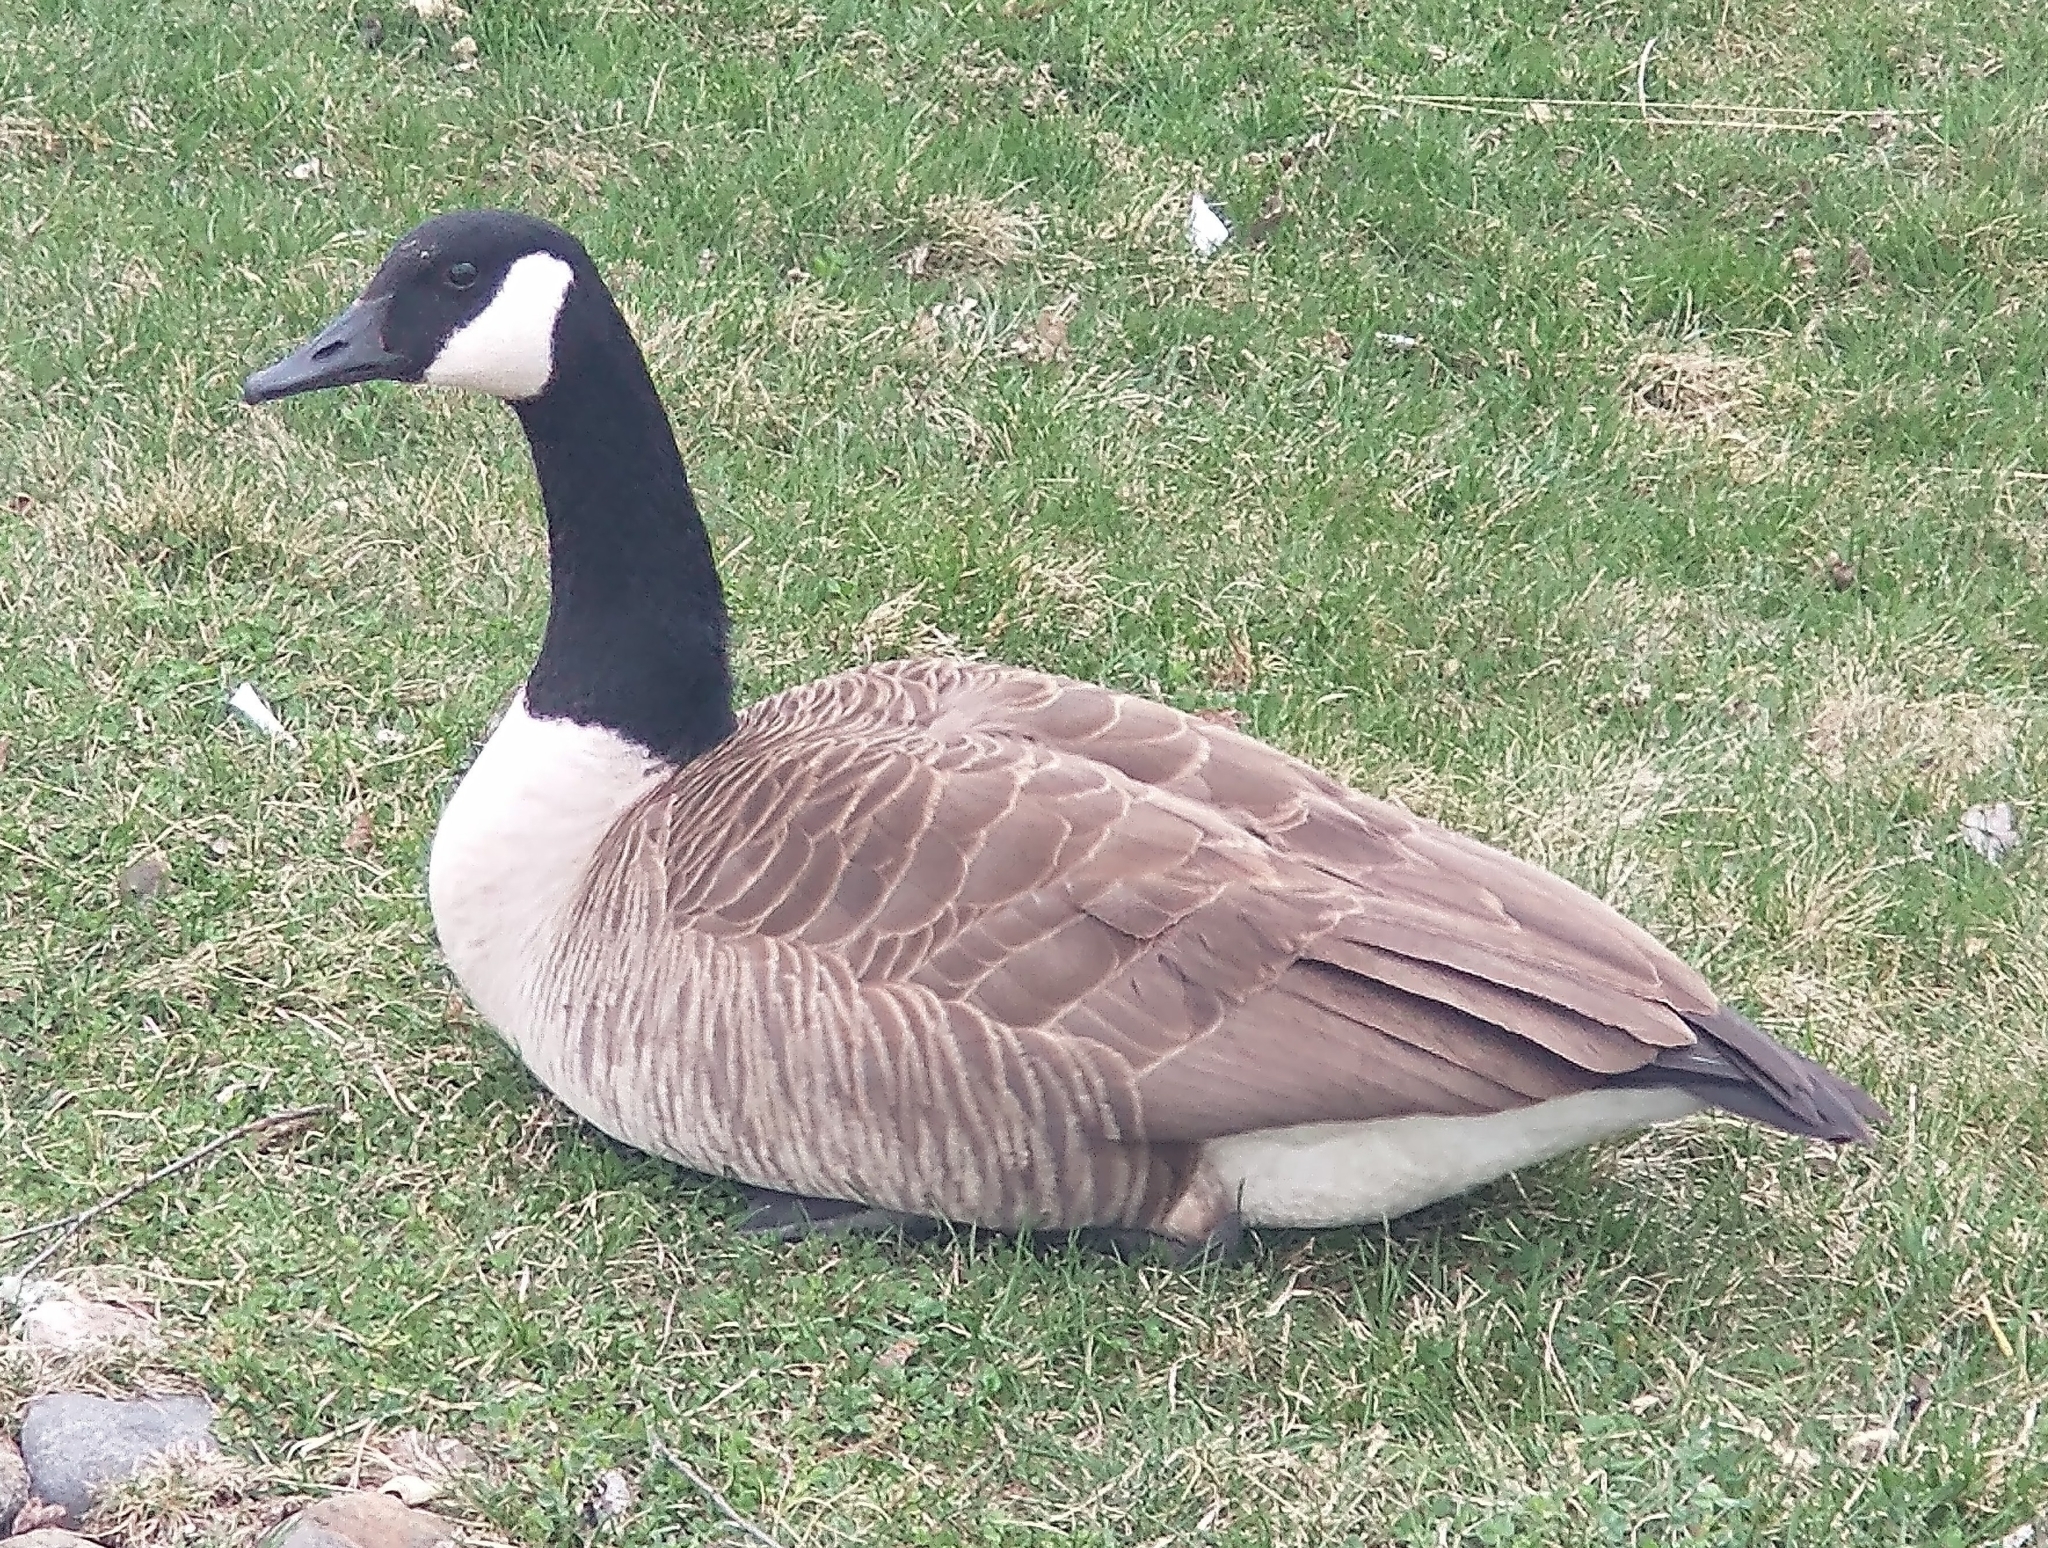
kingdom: Animalia
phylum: Chordata
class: Aves
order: Anseriformes
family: Anatidae
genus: Branta
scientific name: Branta canadensis
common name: Canada goose
